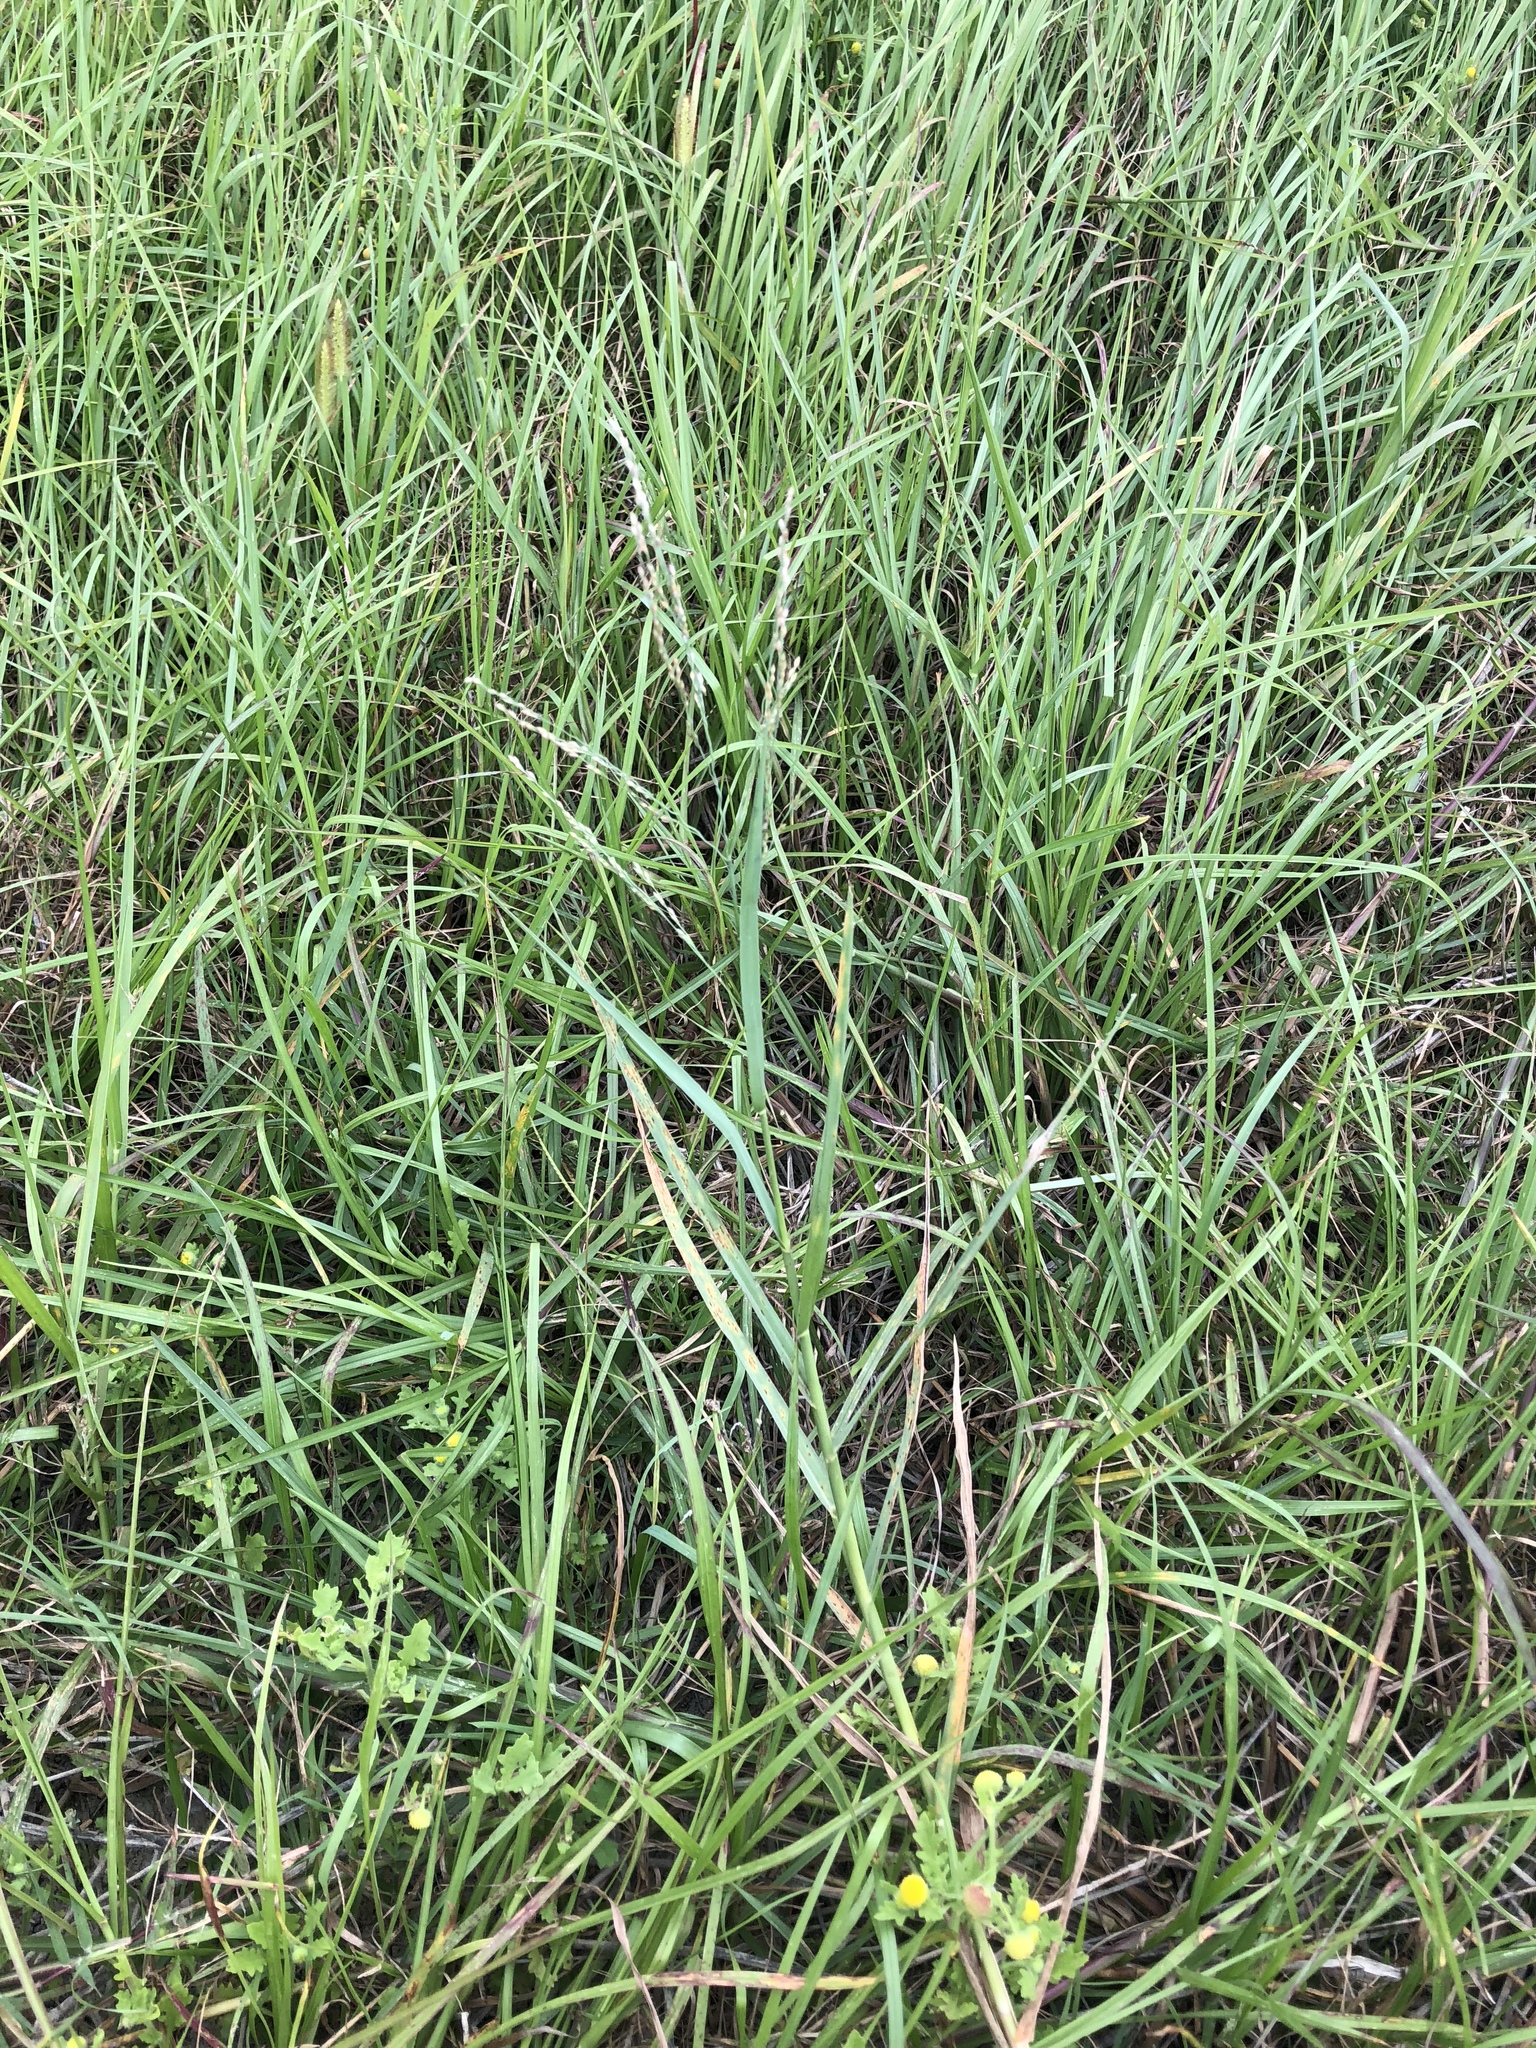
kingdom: Plantae
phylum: Tracheophyta
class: Liliopsida
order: Poales
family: Poaceae
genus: Panicum
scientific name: Panicum repens
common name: Torpedo grass
